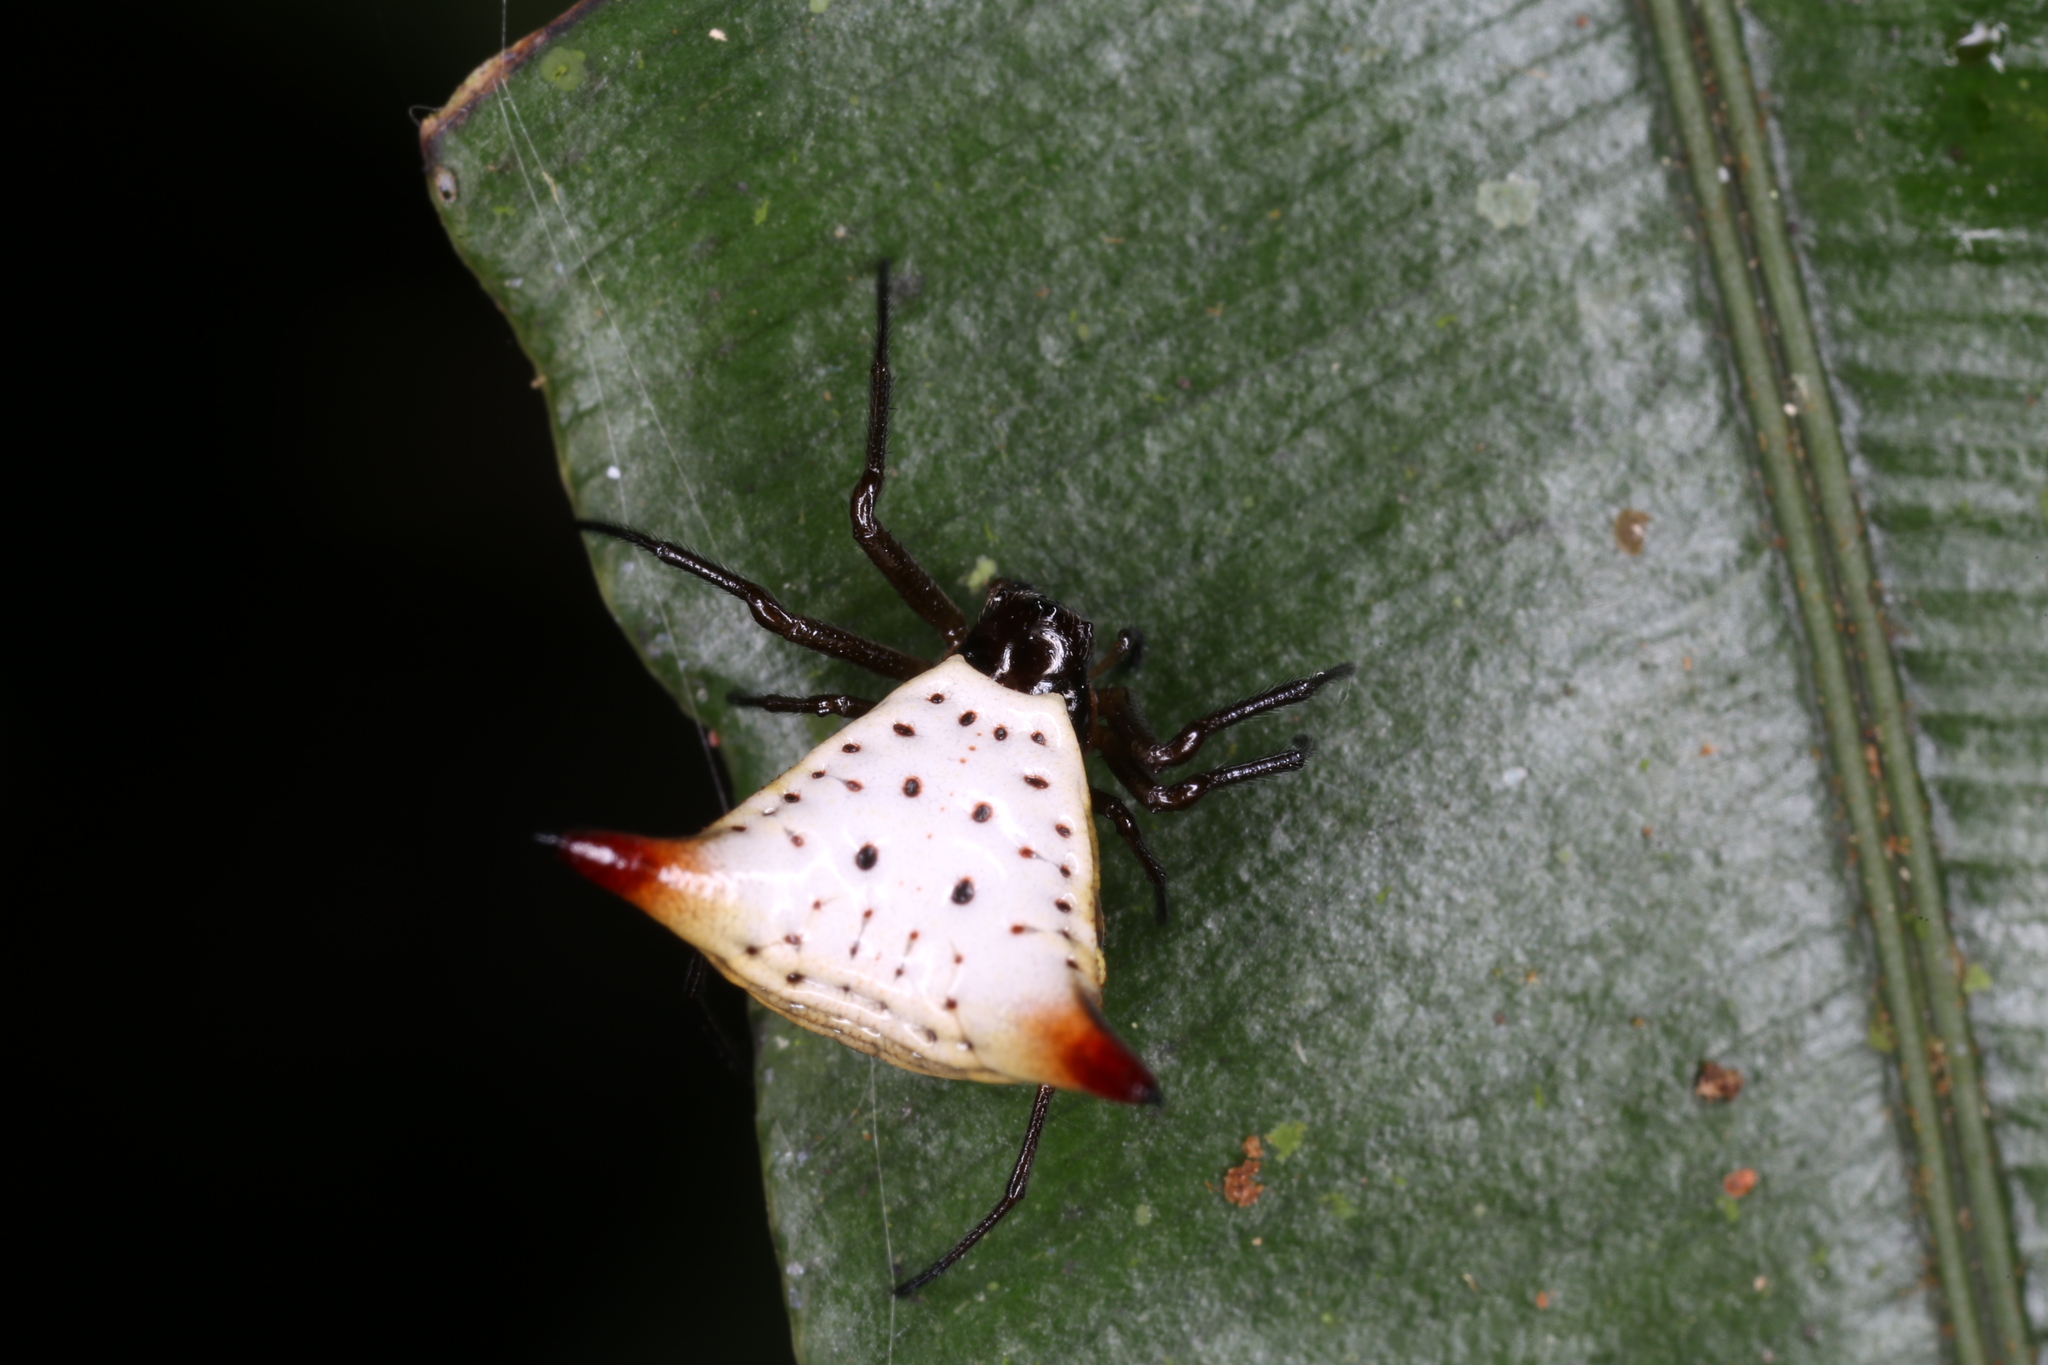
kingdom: Animalia
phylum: Arthropoda
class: Arachnida
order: Araneae
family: Araneidae
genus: Micrathena
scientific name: Micrathena bimucronata
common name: Orb weavers
